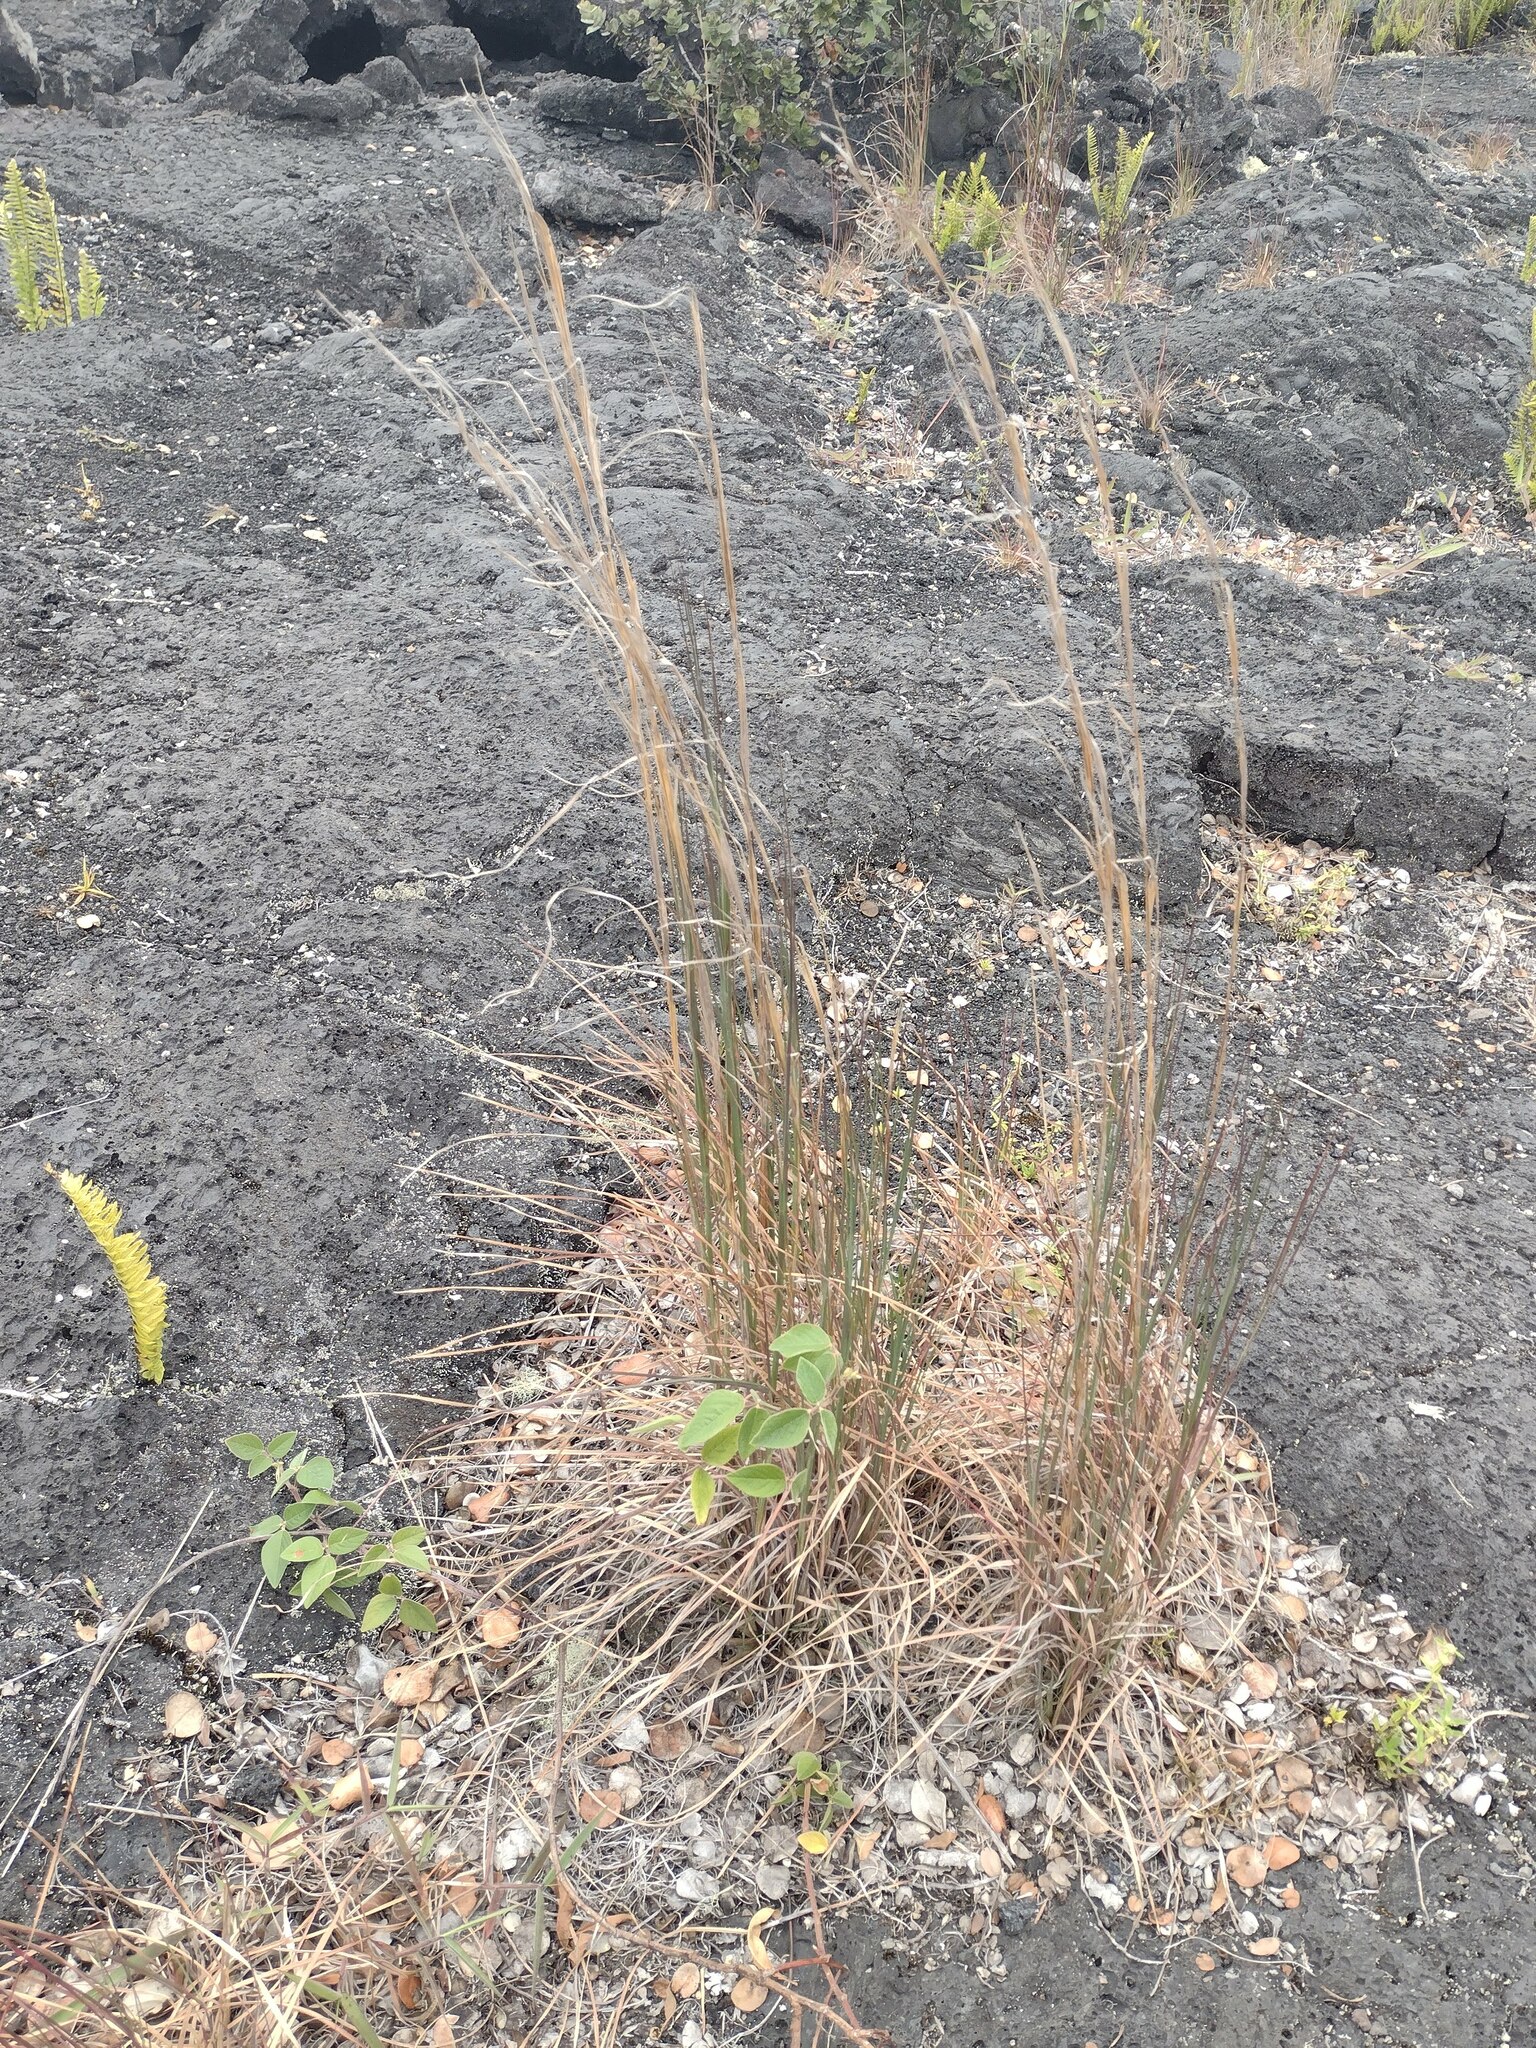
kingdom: Plantae
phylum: Tracheophyta
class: Liliopsida
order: Poales
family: Poaceae
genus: Andropogon
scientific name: Andropogon virginicus
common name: Broomsedge bluestem
